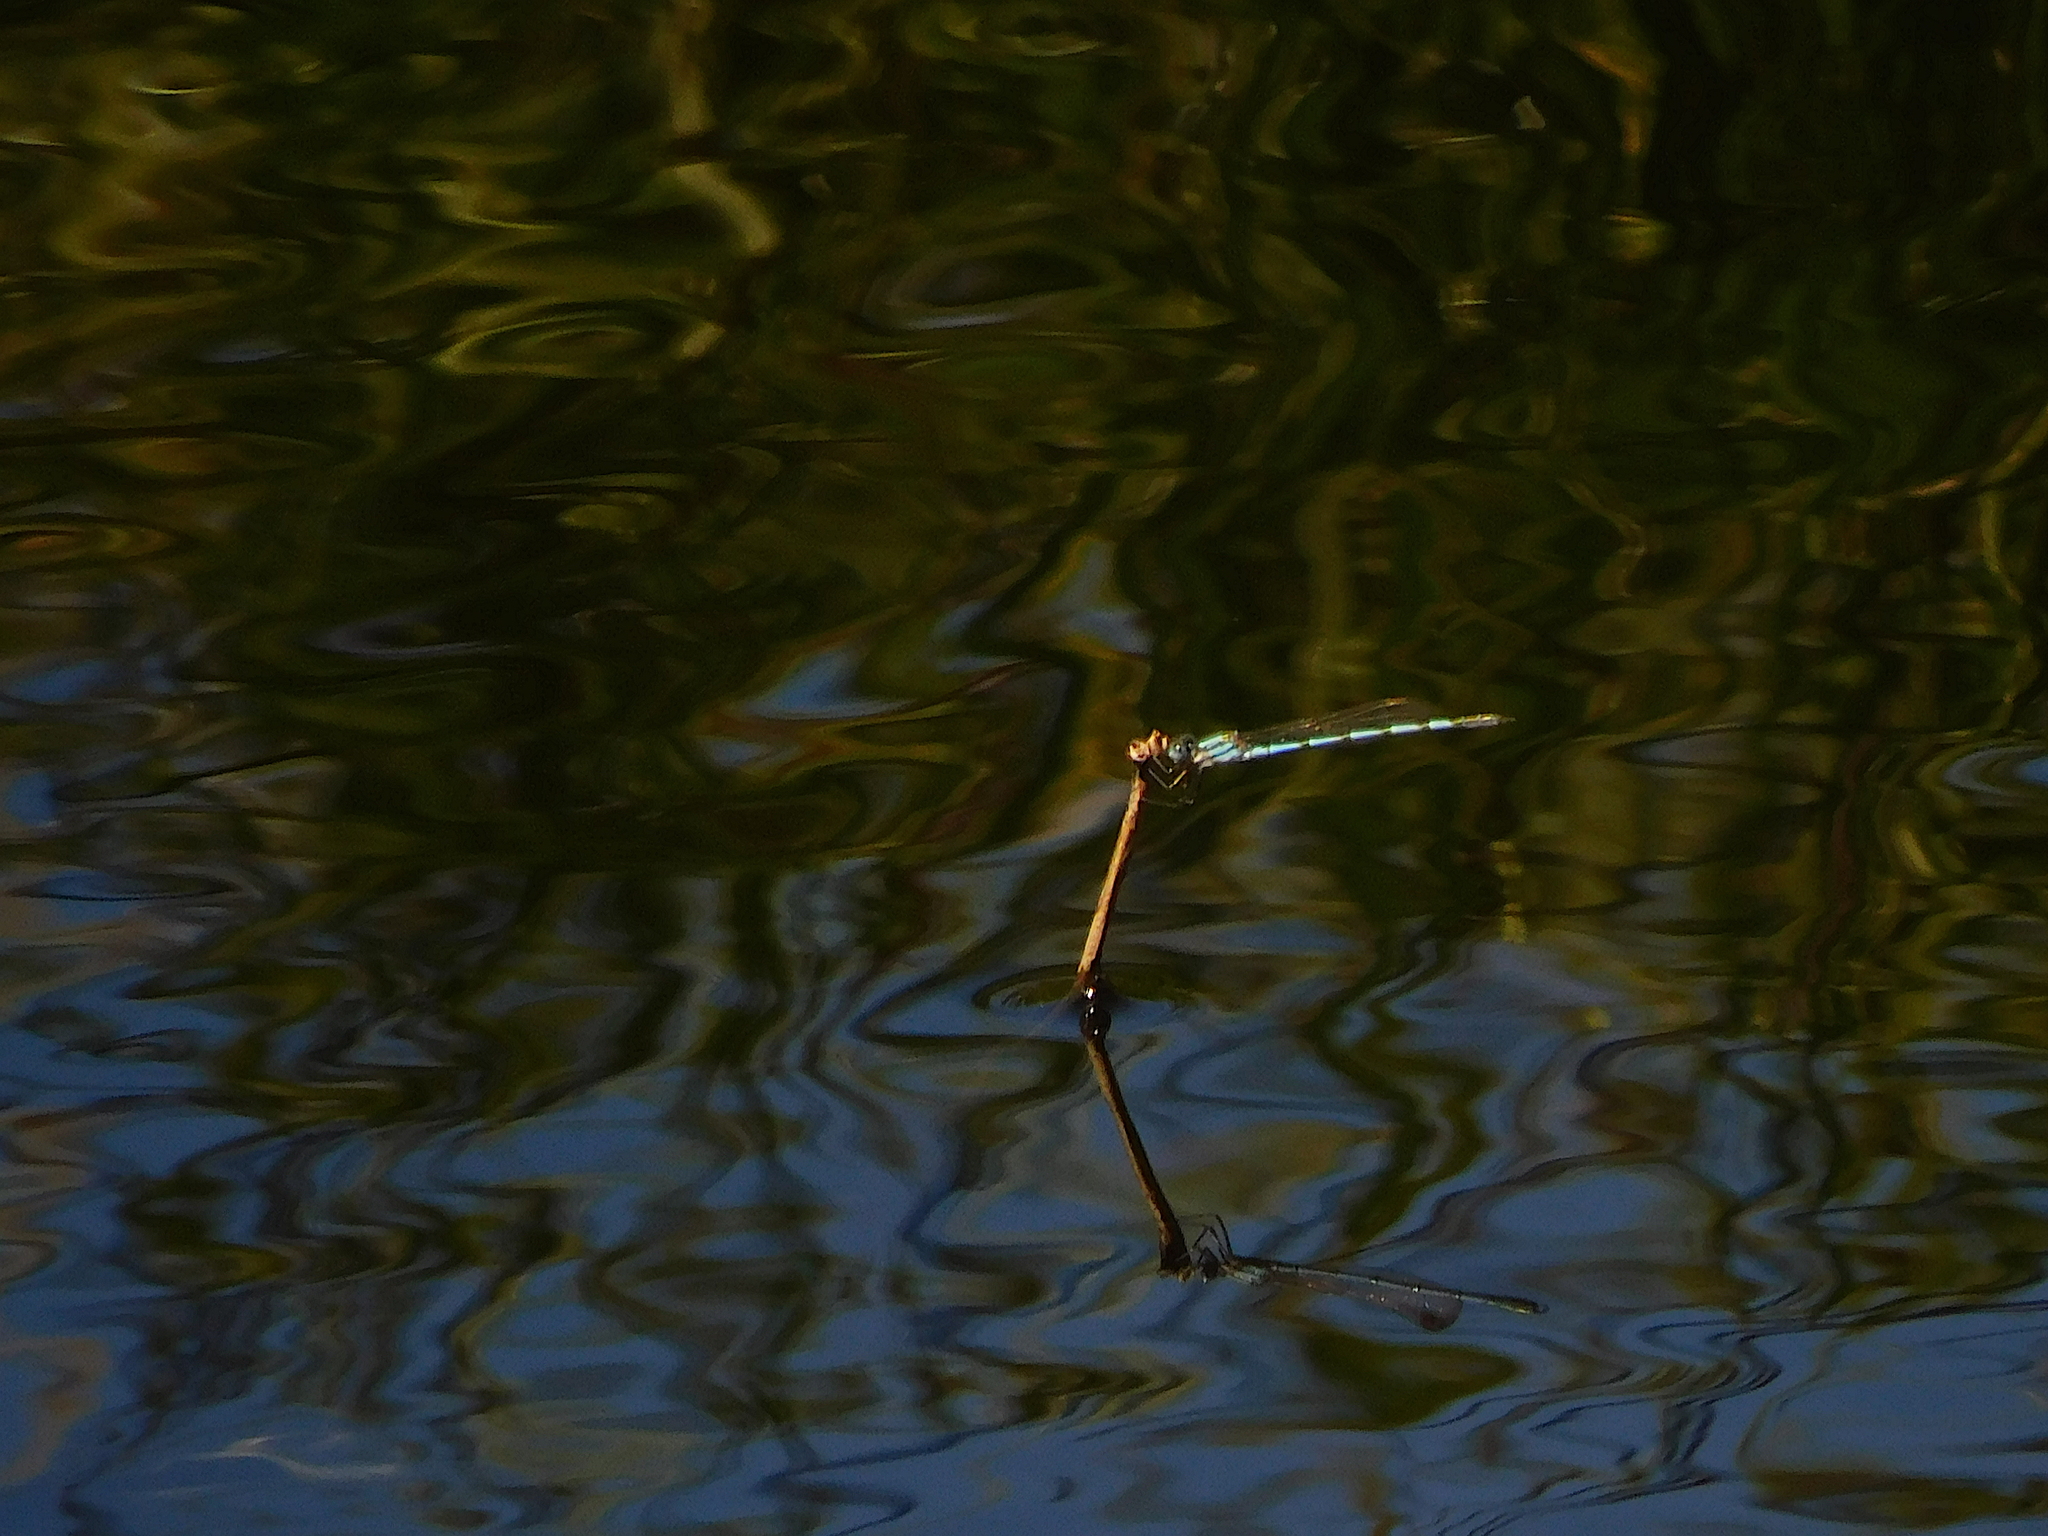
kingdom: Animalia
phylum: Arthropoda
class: Insecta
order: Odonata
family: Lestidae
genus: Austrolestes
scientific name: Austrolestes annulosus
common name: Blue ringtail
